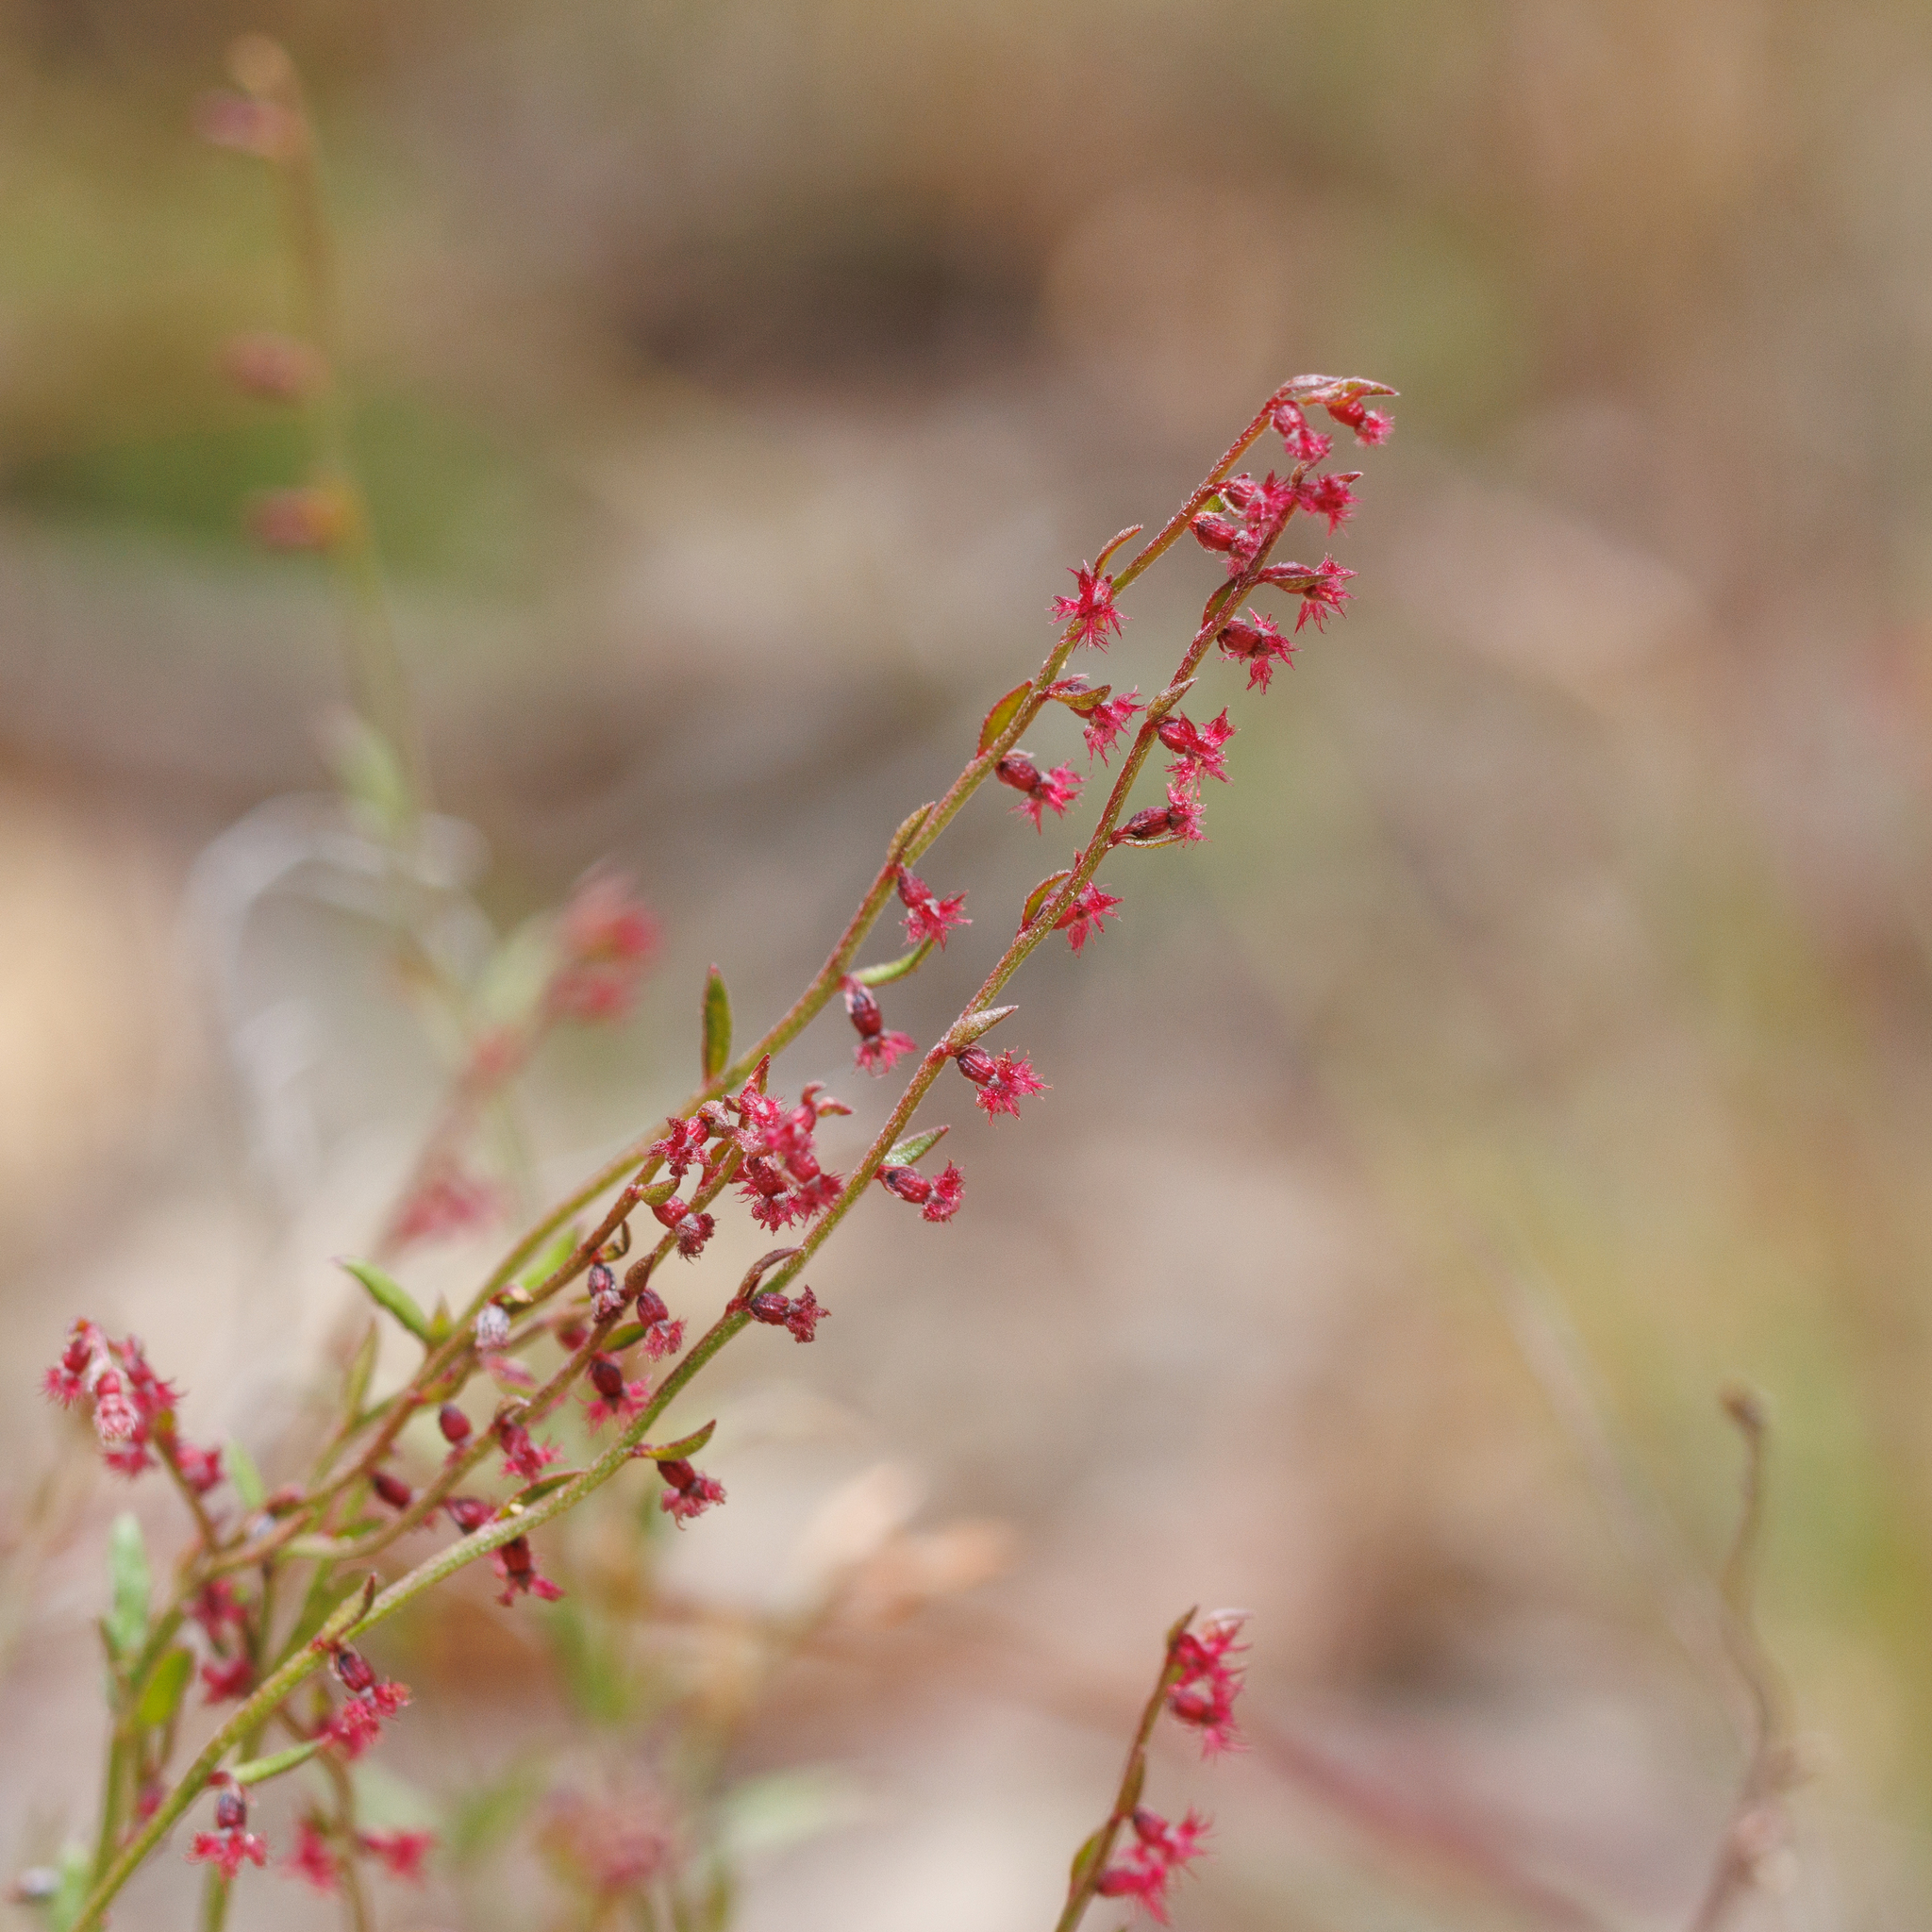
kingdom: Plantae
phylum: Tracheophyta
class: Magnoliopsida
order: Saxifragales
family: Haloragaceae
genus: Gonocarpus
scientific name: Gonocarpus tetragynus
